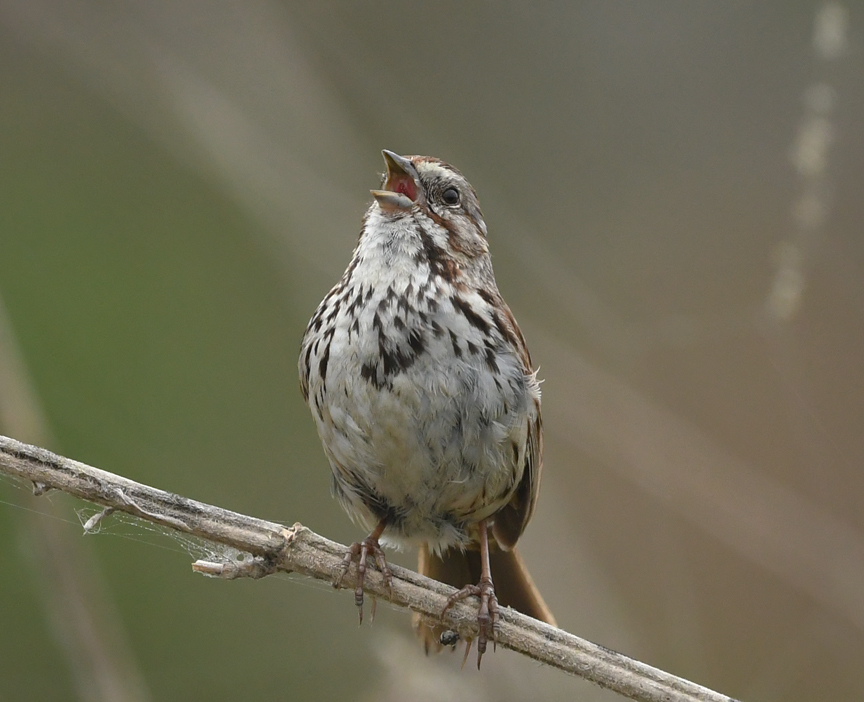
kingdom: Animalia
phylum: Chordata
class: Aves
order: Passeriformes
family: Passerellidae
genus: Melospiza
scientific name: Melospiza melodia
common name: Song sparrow
